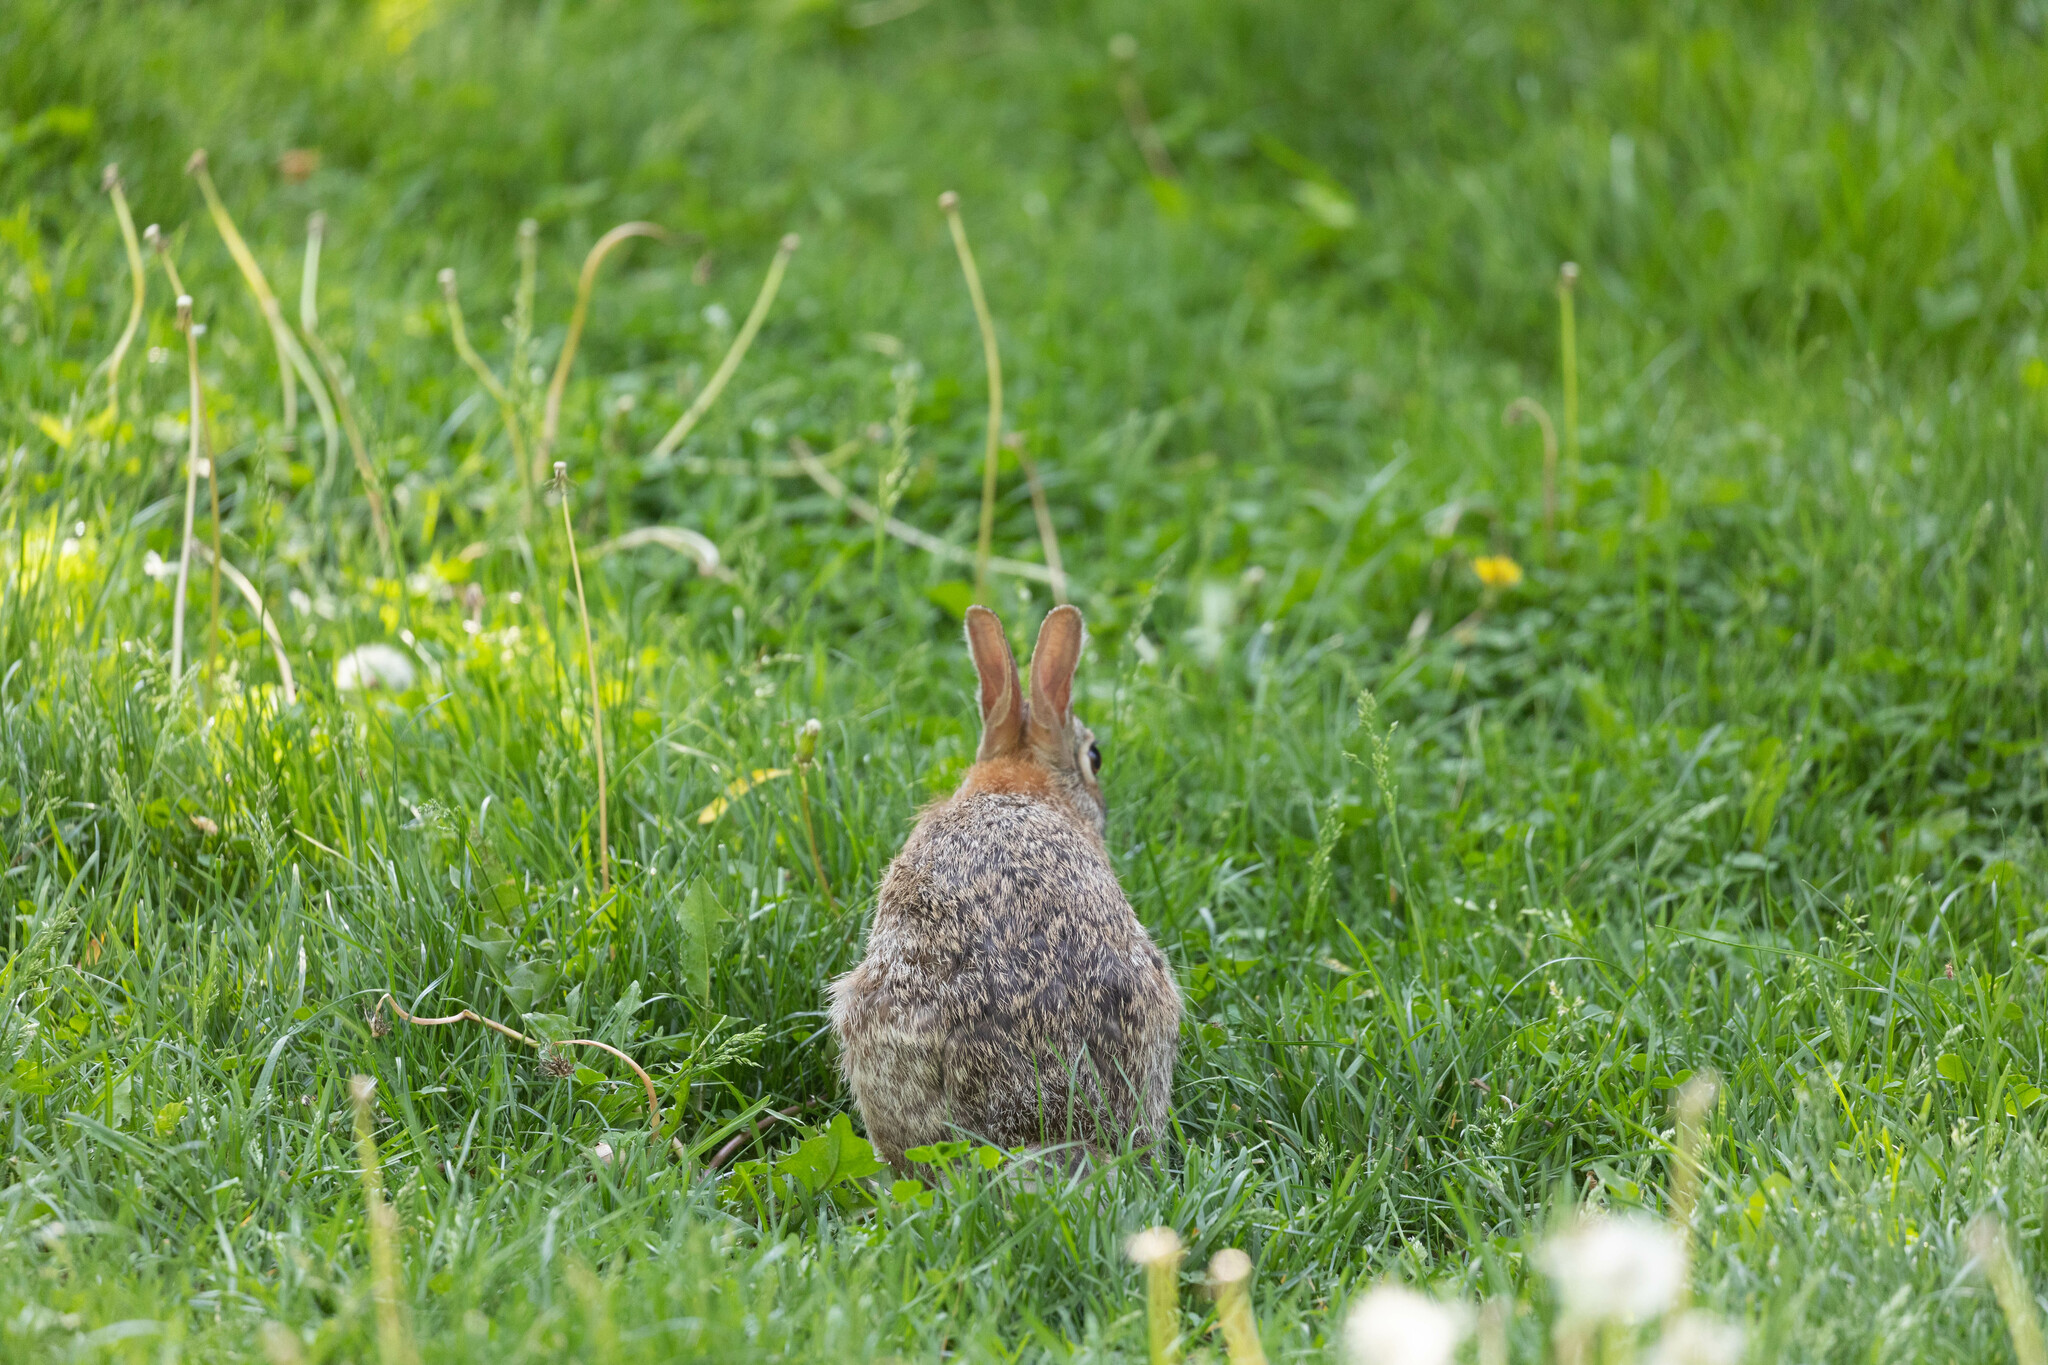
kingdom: Animalia
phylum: Chordata
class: Mammalia
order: Lagomorpha
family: Leporidae
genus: Sylvilagus
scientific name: Sylvilagus floridanus
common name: Eastern cottontail
